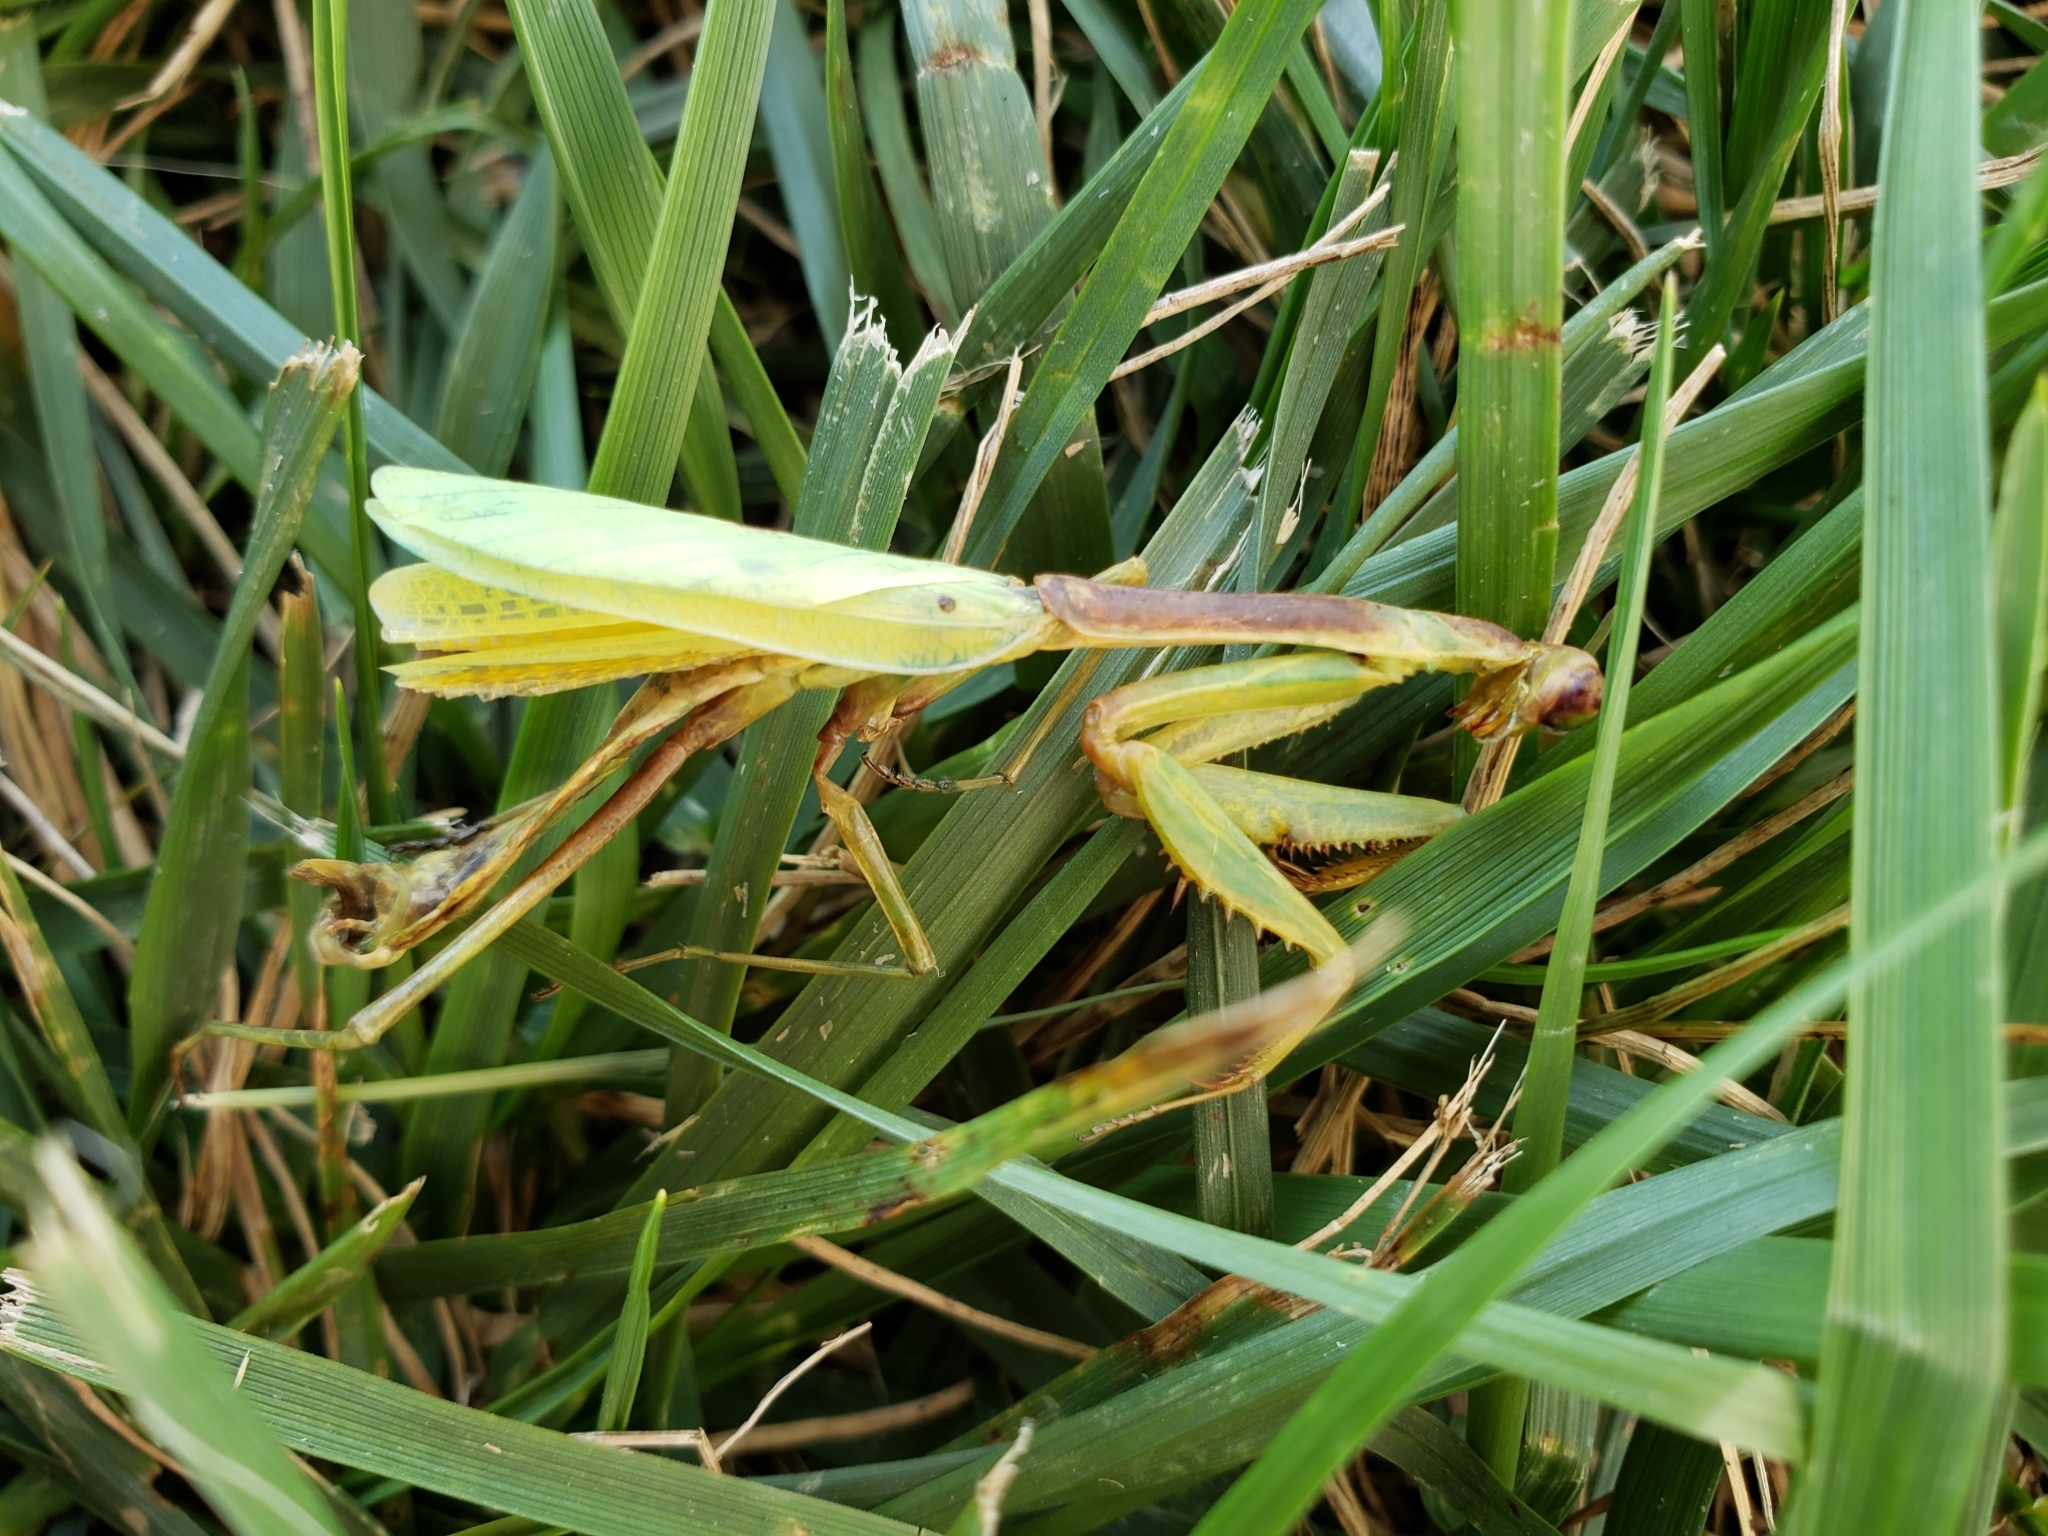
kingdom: Animalia
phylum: Arthropoda
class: Insecta
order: Mantodea
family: Mantidae
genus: Stagmomantis
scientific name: Stagmomantis carolina
